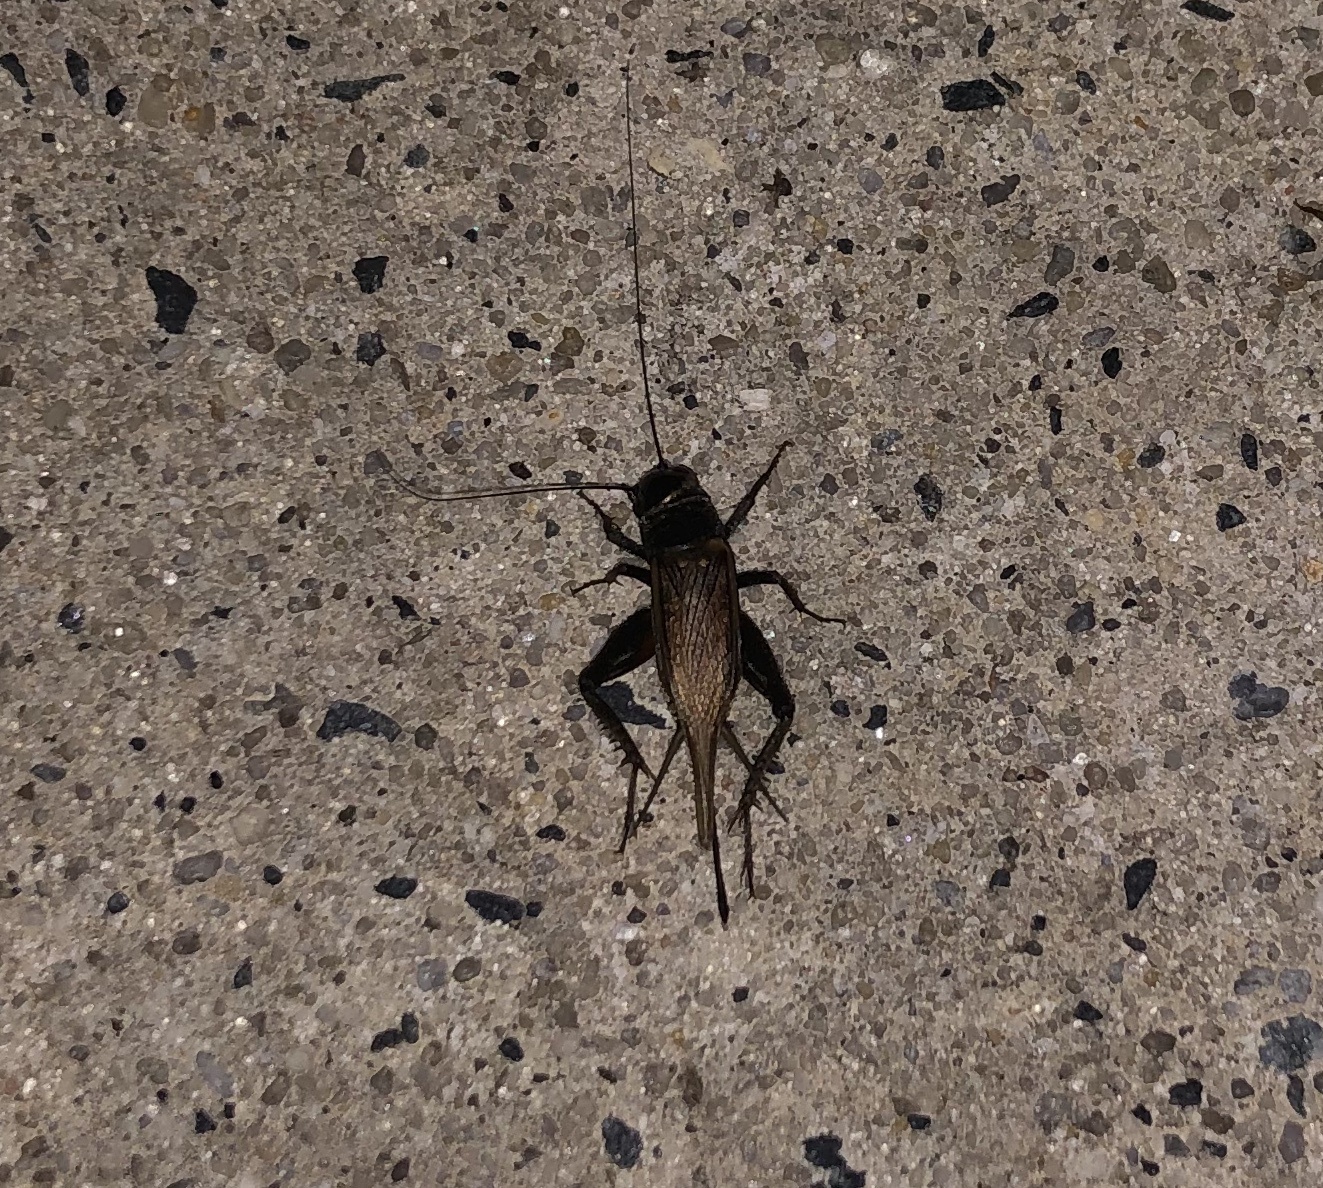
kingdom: Animalia
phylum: Arthropoda
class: Insecta
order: Orthoptera
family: Gryllidae
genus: Gryllus
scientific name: Gryllus
